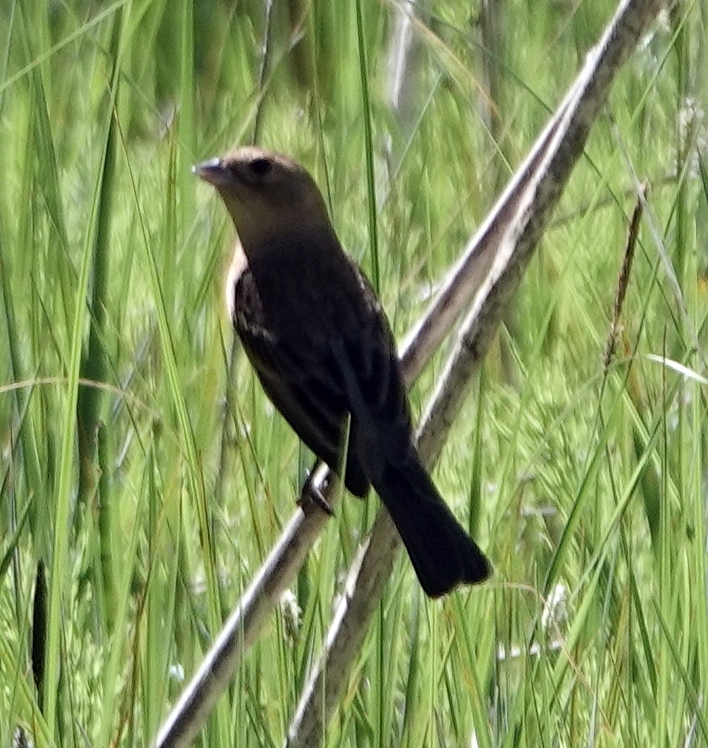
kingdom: Animalia
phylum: Chordata
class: Aves
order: Passeriformes
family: Cardinalidae
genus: Passerina
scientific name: Passerina amoena
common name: Lazuli bunting
